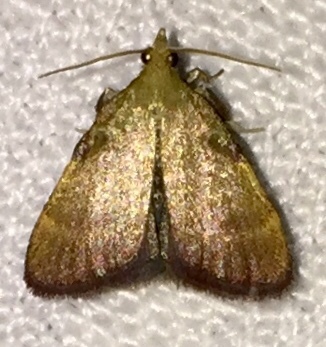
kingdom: Animalia
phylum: Arthropoda
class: Insecta
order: Lepidoptera
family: Pyralidae
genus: Condylolomia
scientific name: Condylolomia participialis
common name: Drab condylolomia moth
